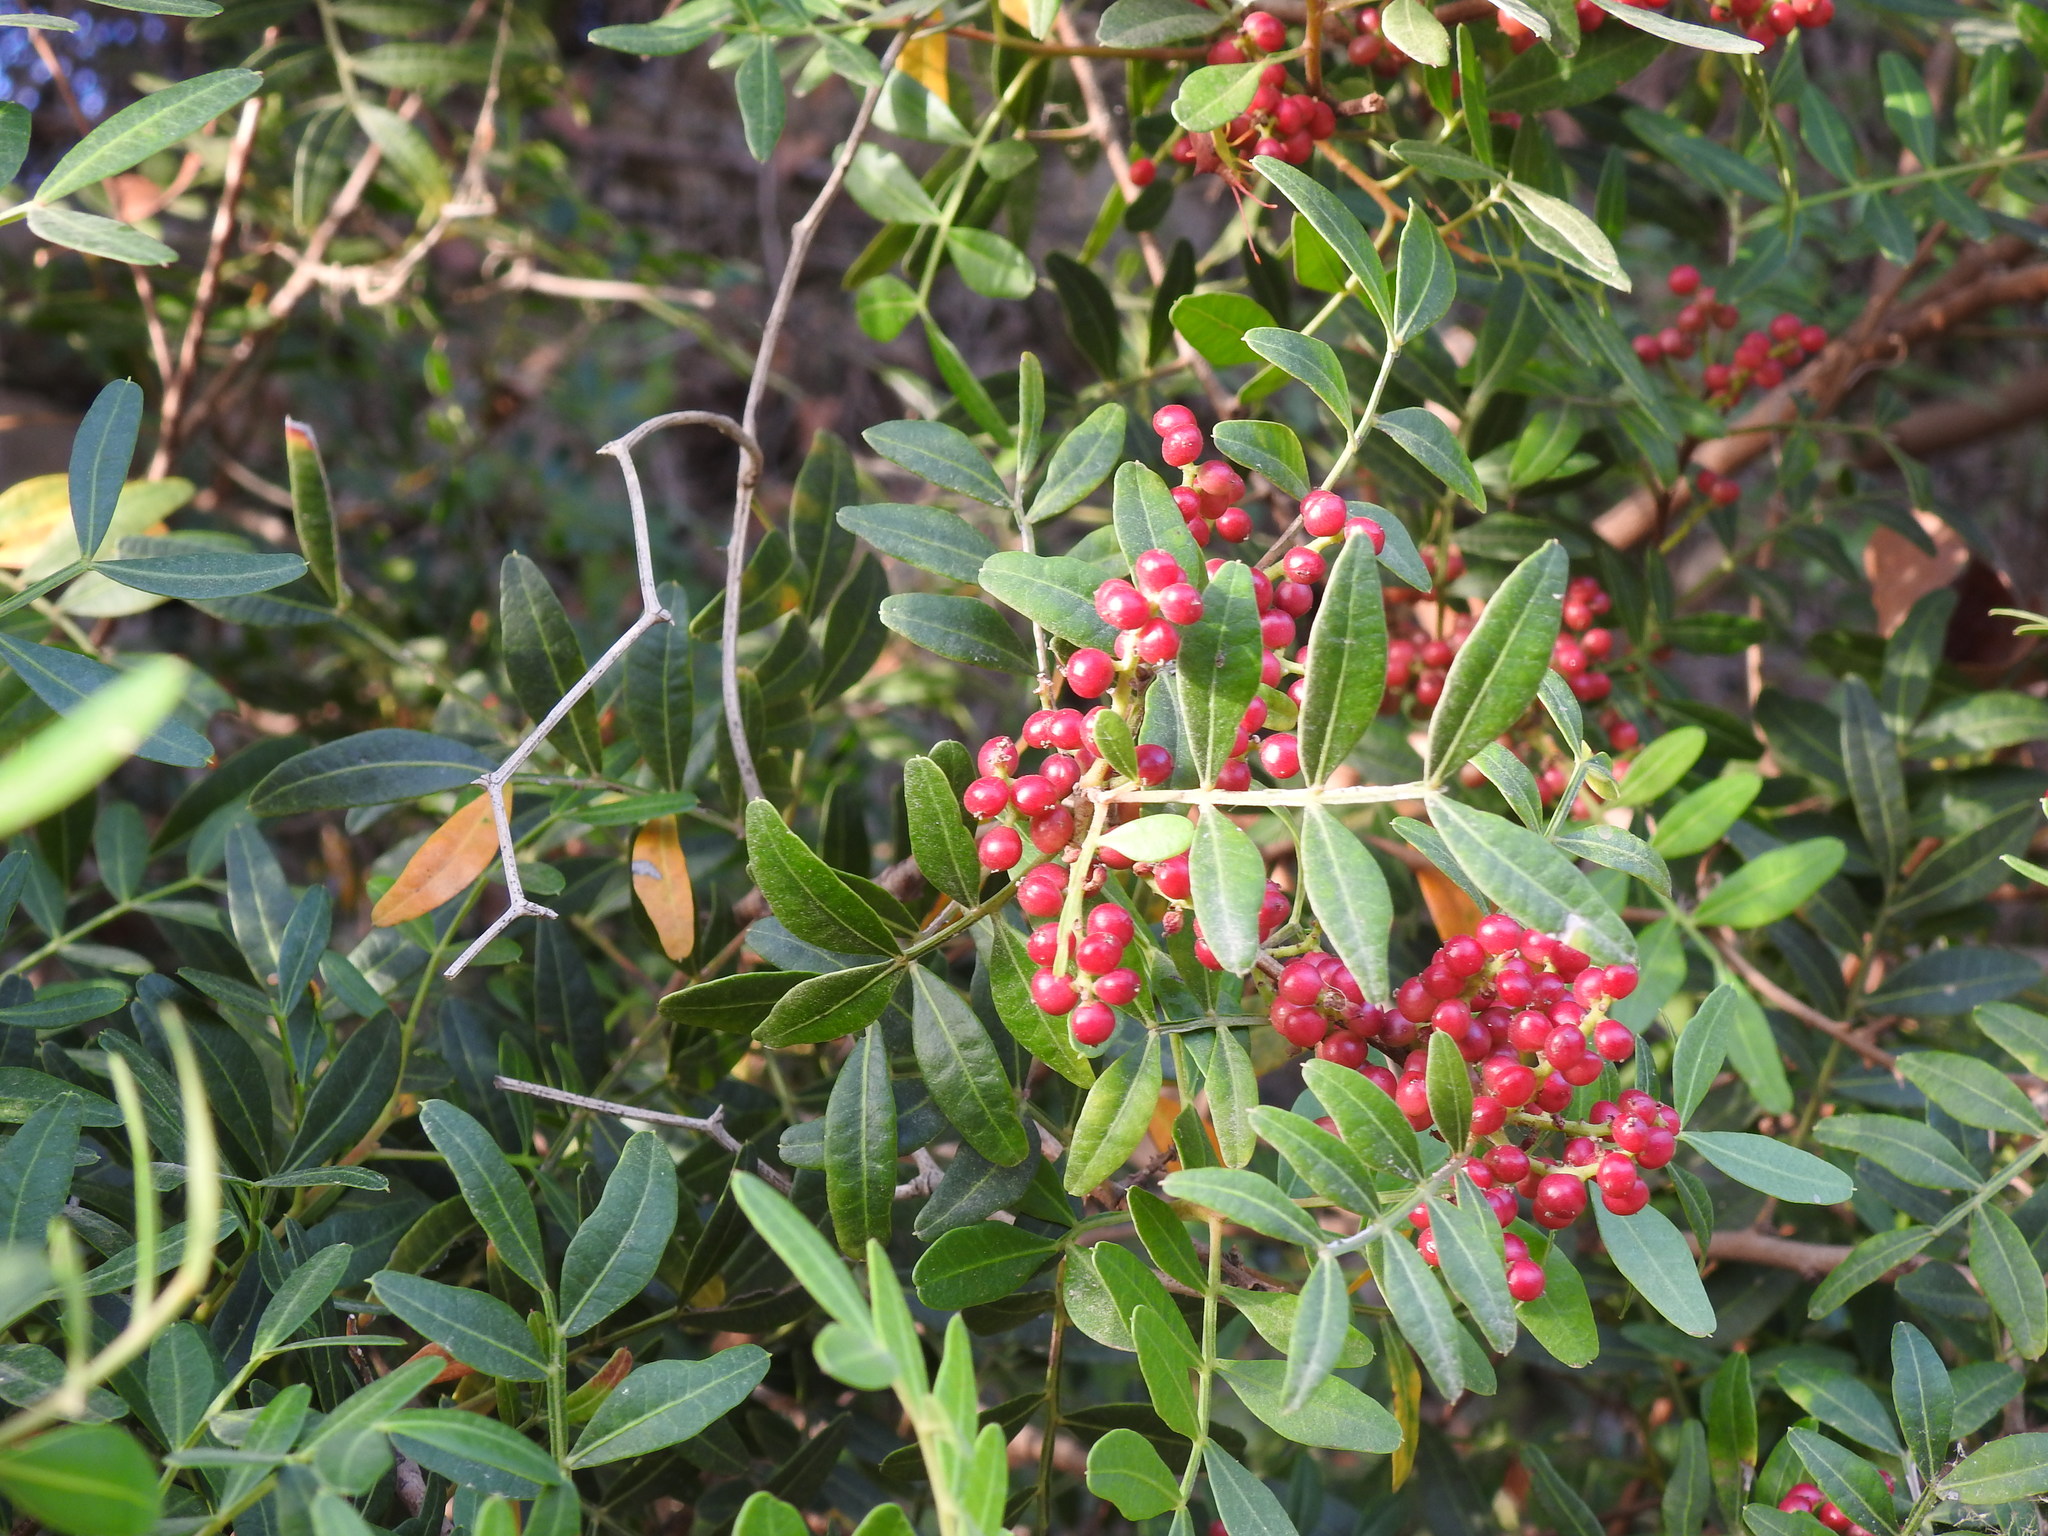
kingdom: Plantae
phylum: Tracheophyta
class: Magnoliopsida
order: Sapindales
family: Anacardiaceae
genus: Pistacia
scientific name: Pistacia lentiscus
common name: Lentisk
